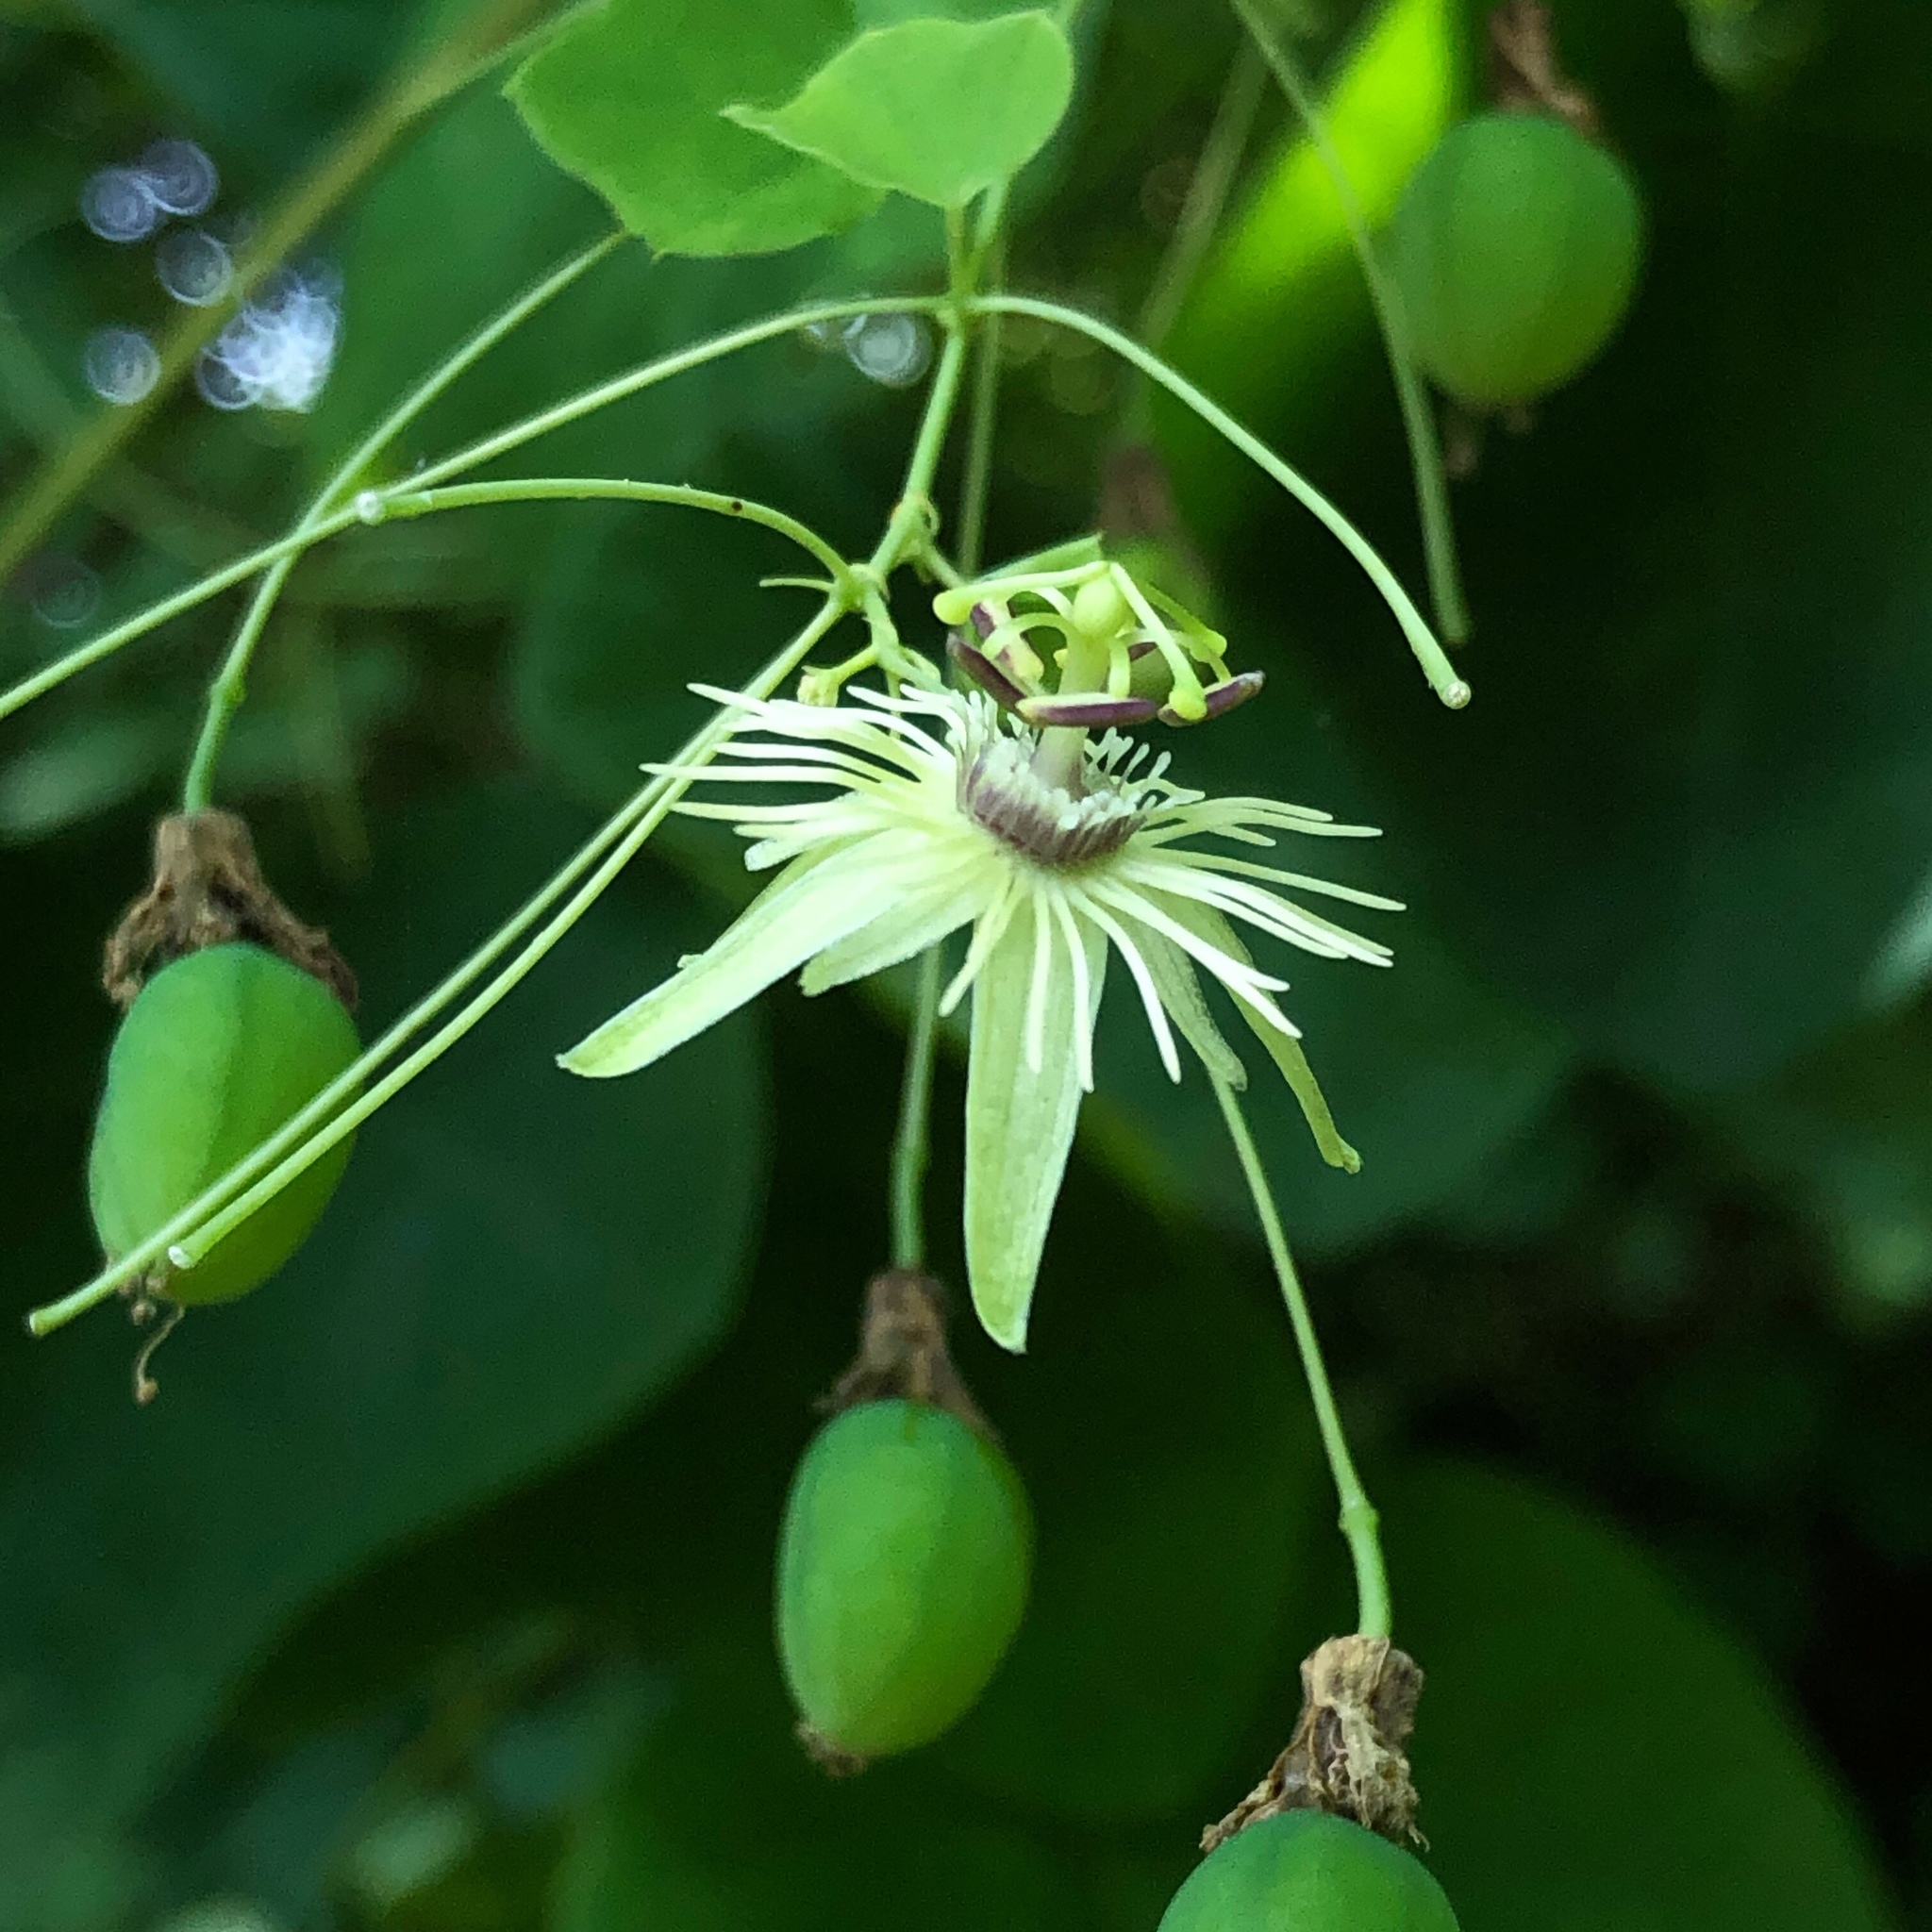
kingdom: Plantae
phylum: Tracheophyta
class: Magnoliopsida
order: Malpighiales
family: Passifloraceae
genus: Passiflora
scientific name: Passiflora lutea
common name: Yellow passionflower
